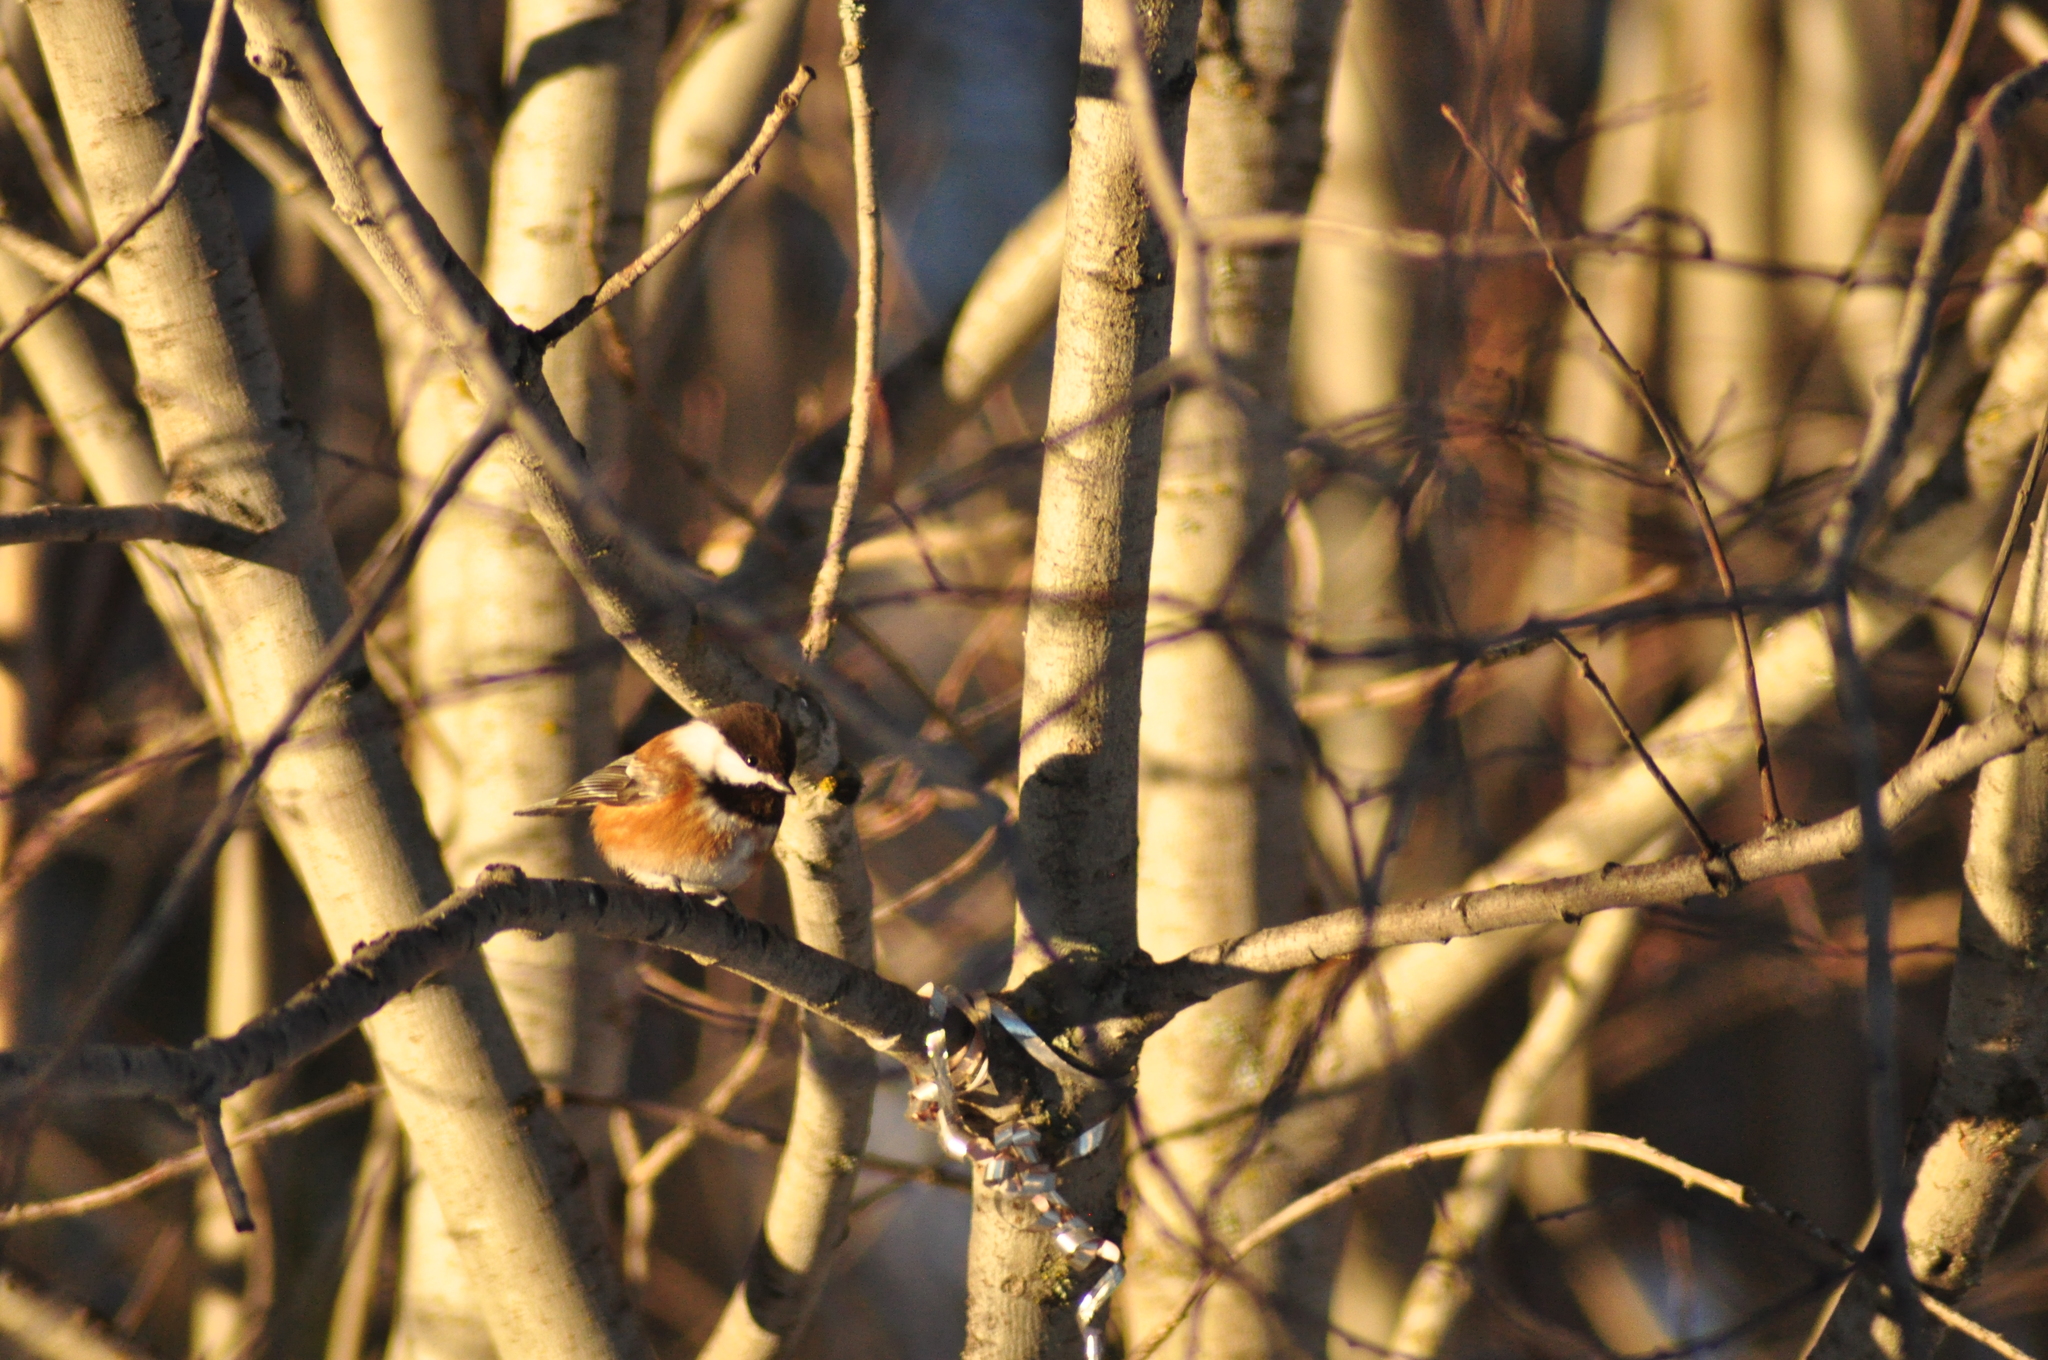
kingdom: Animalia
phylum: Chordata
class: Aves
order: Passeriformes
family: Paridae
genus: Poecile
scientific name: Poecile rufescens
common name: Chestnut-backed chickadee
